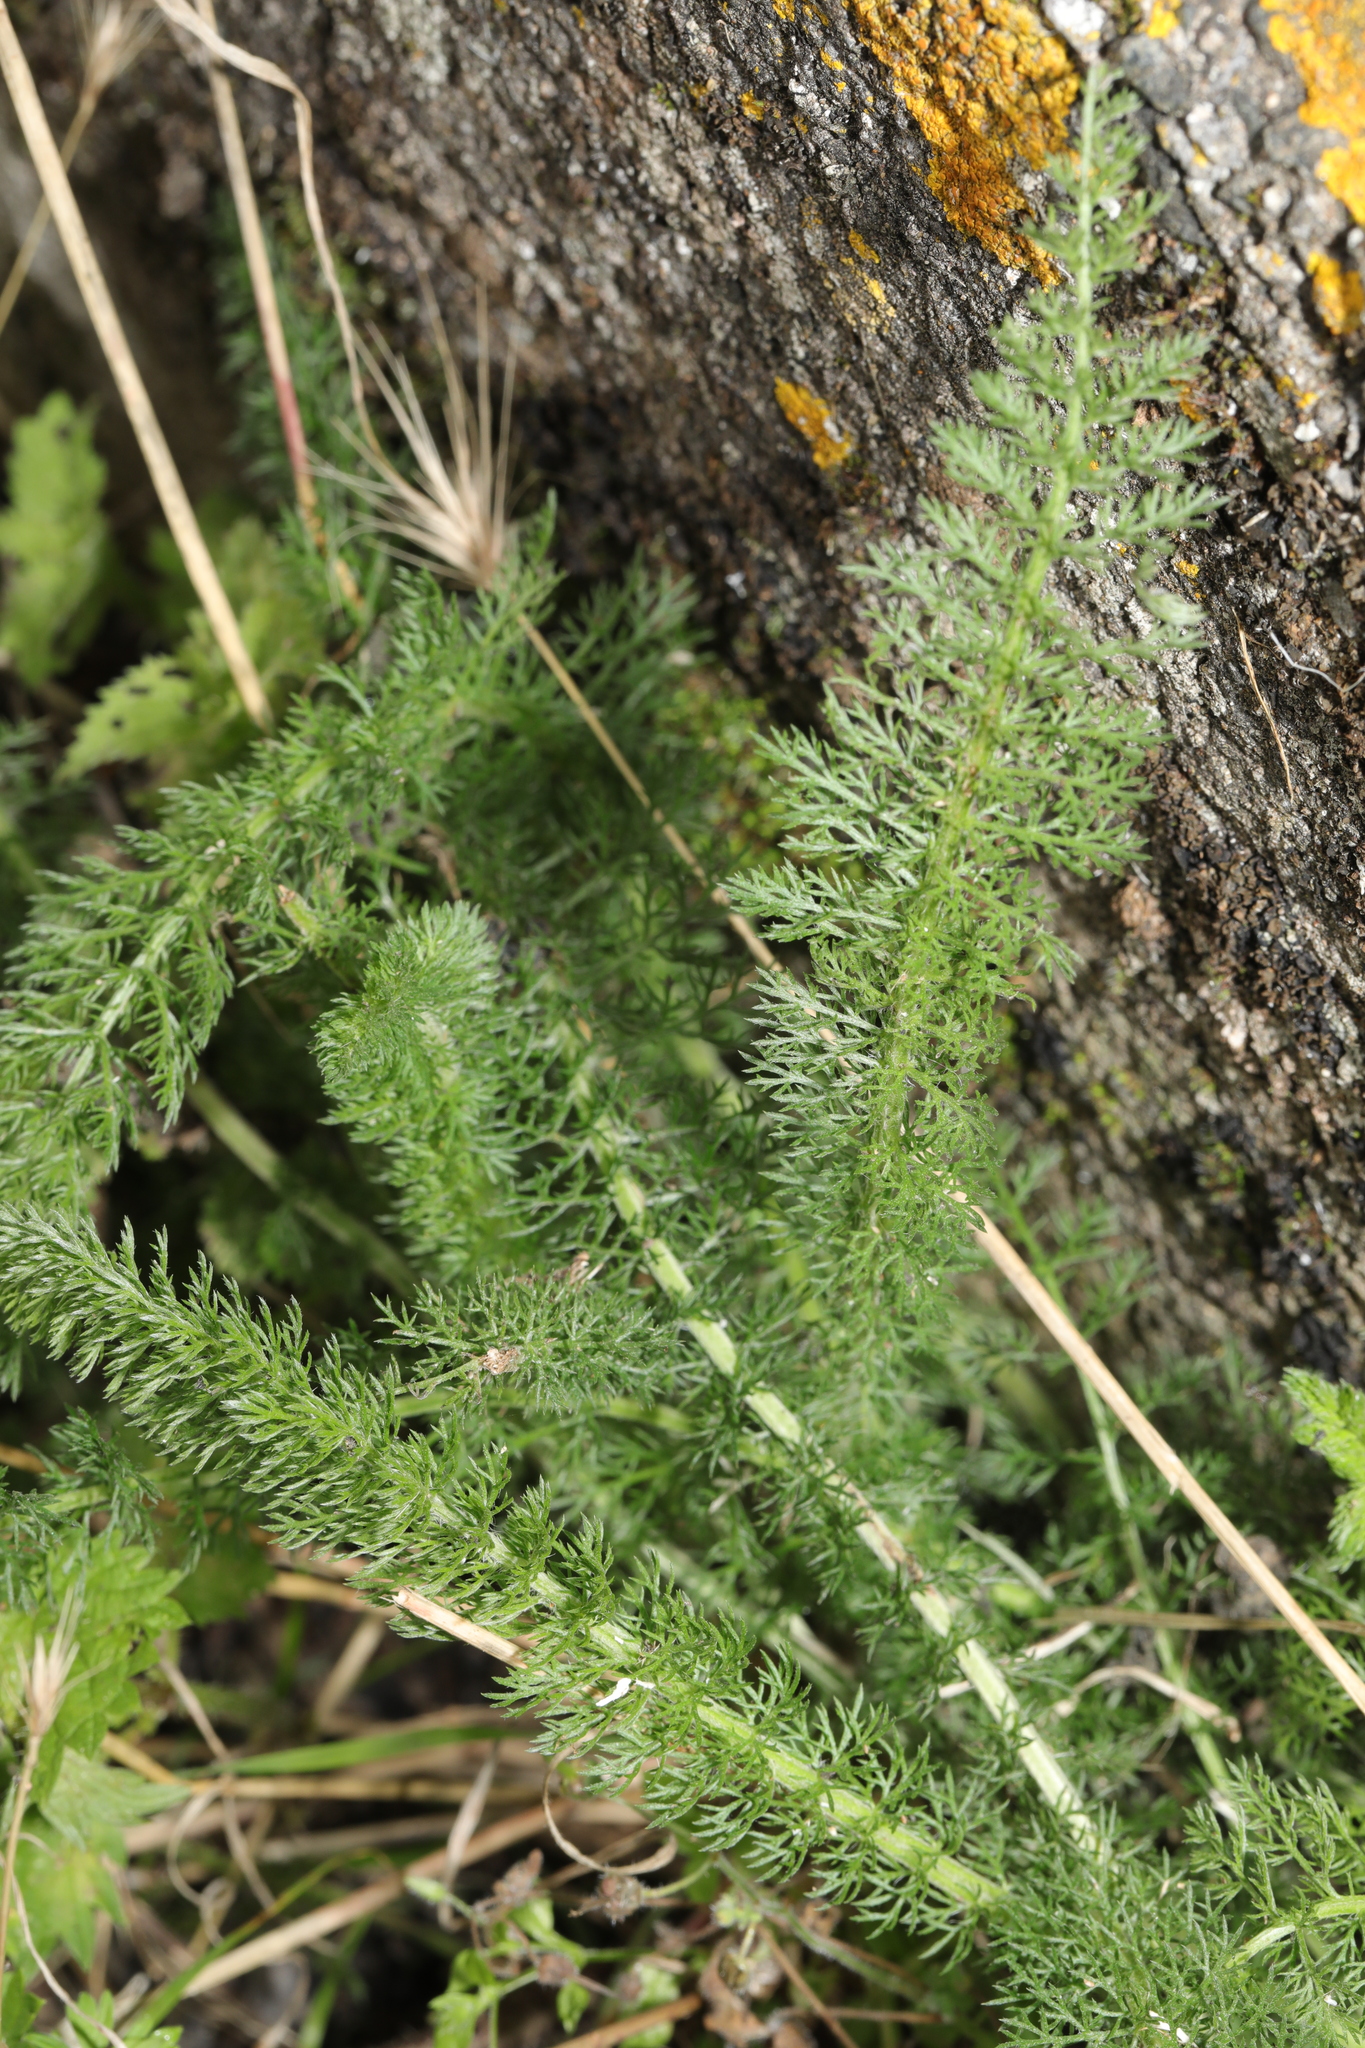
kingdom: Plantae
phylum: Tracheophyta
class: Magnoliopsida
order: Asterales
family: Asteraceae
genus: Achillea
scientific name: Achillea millefolium
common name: Yarrow
